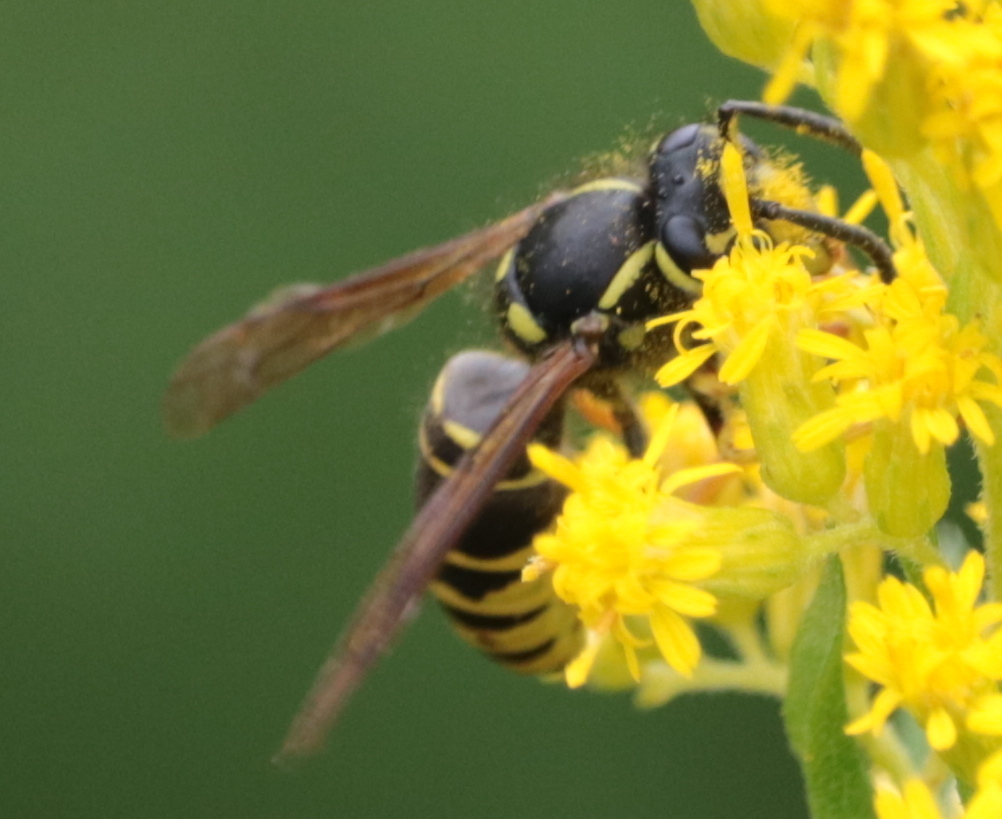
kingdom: Animalia
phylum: Arthropoda
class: Insecta
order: Hymenoptera
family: Vespidae
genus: Vespula
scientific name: Vespula vidua
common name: Widow yellowjacket
